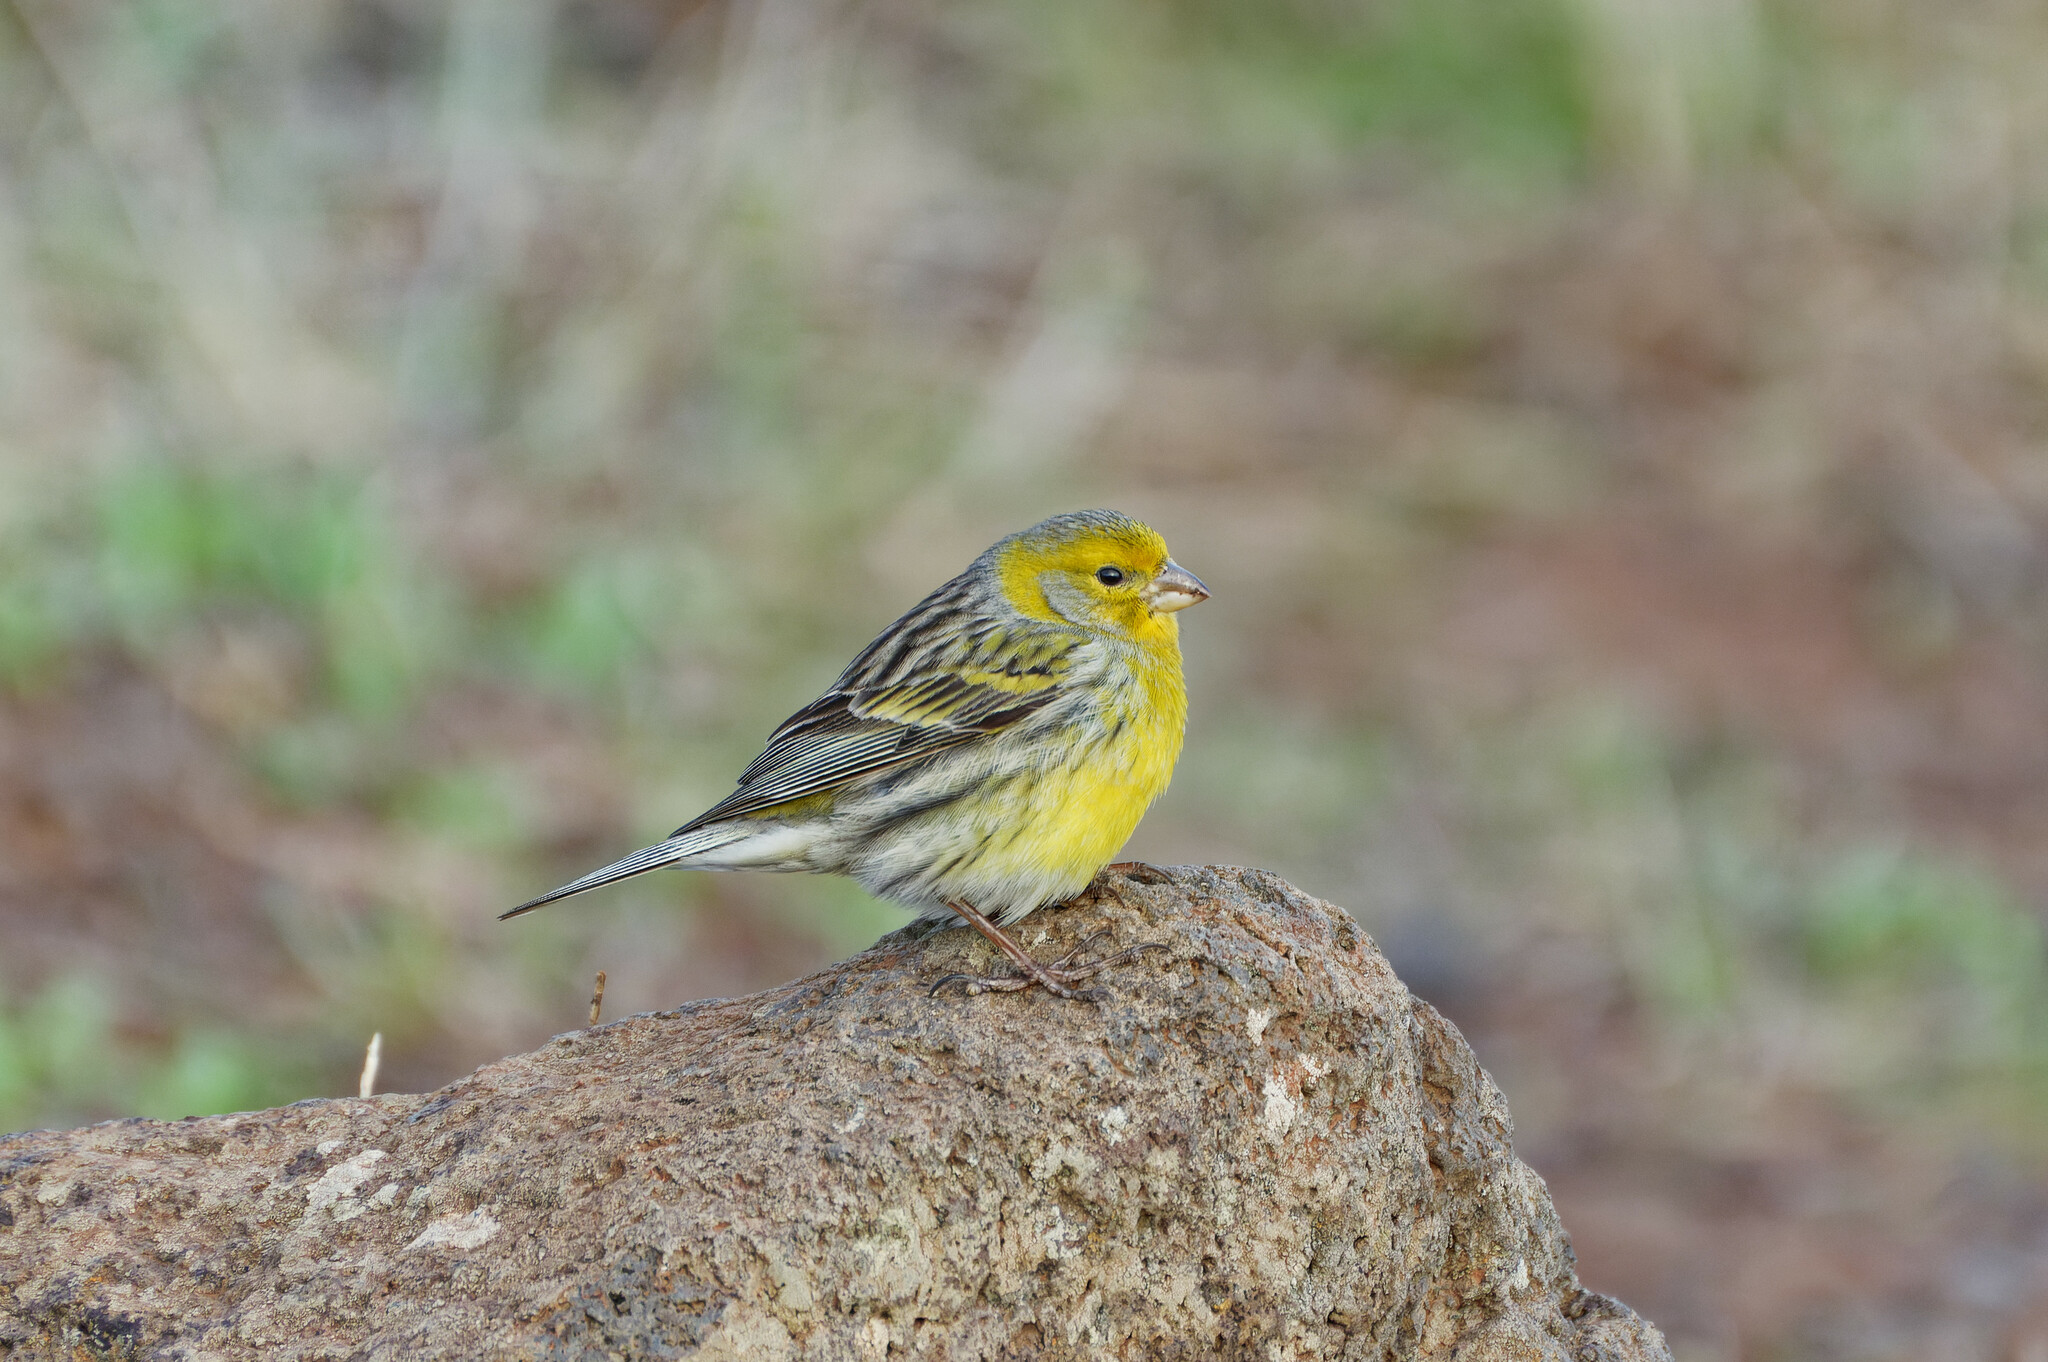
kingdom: Animalia
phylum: Chordata
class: Aves
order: Passeriformes
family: Fringillidae
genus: Serinus
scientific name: Serinus canaria
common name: Atlantic canary
